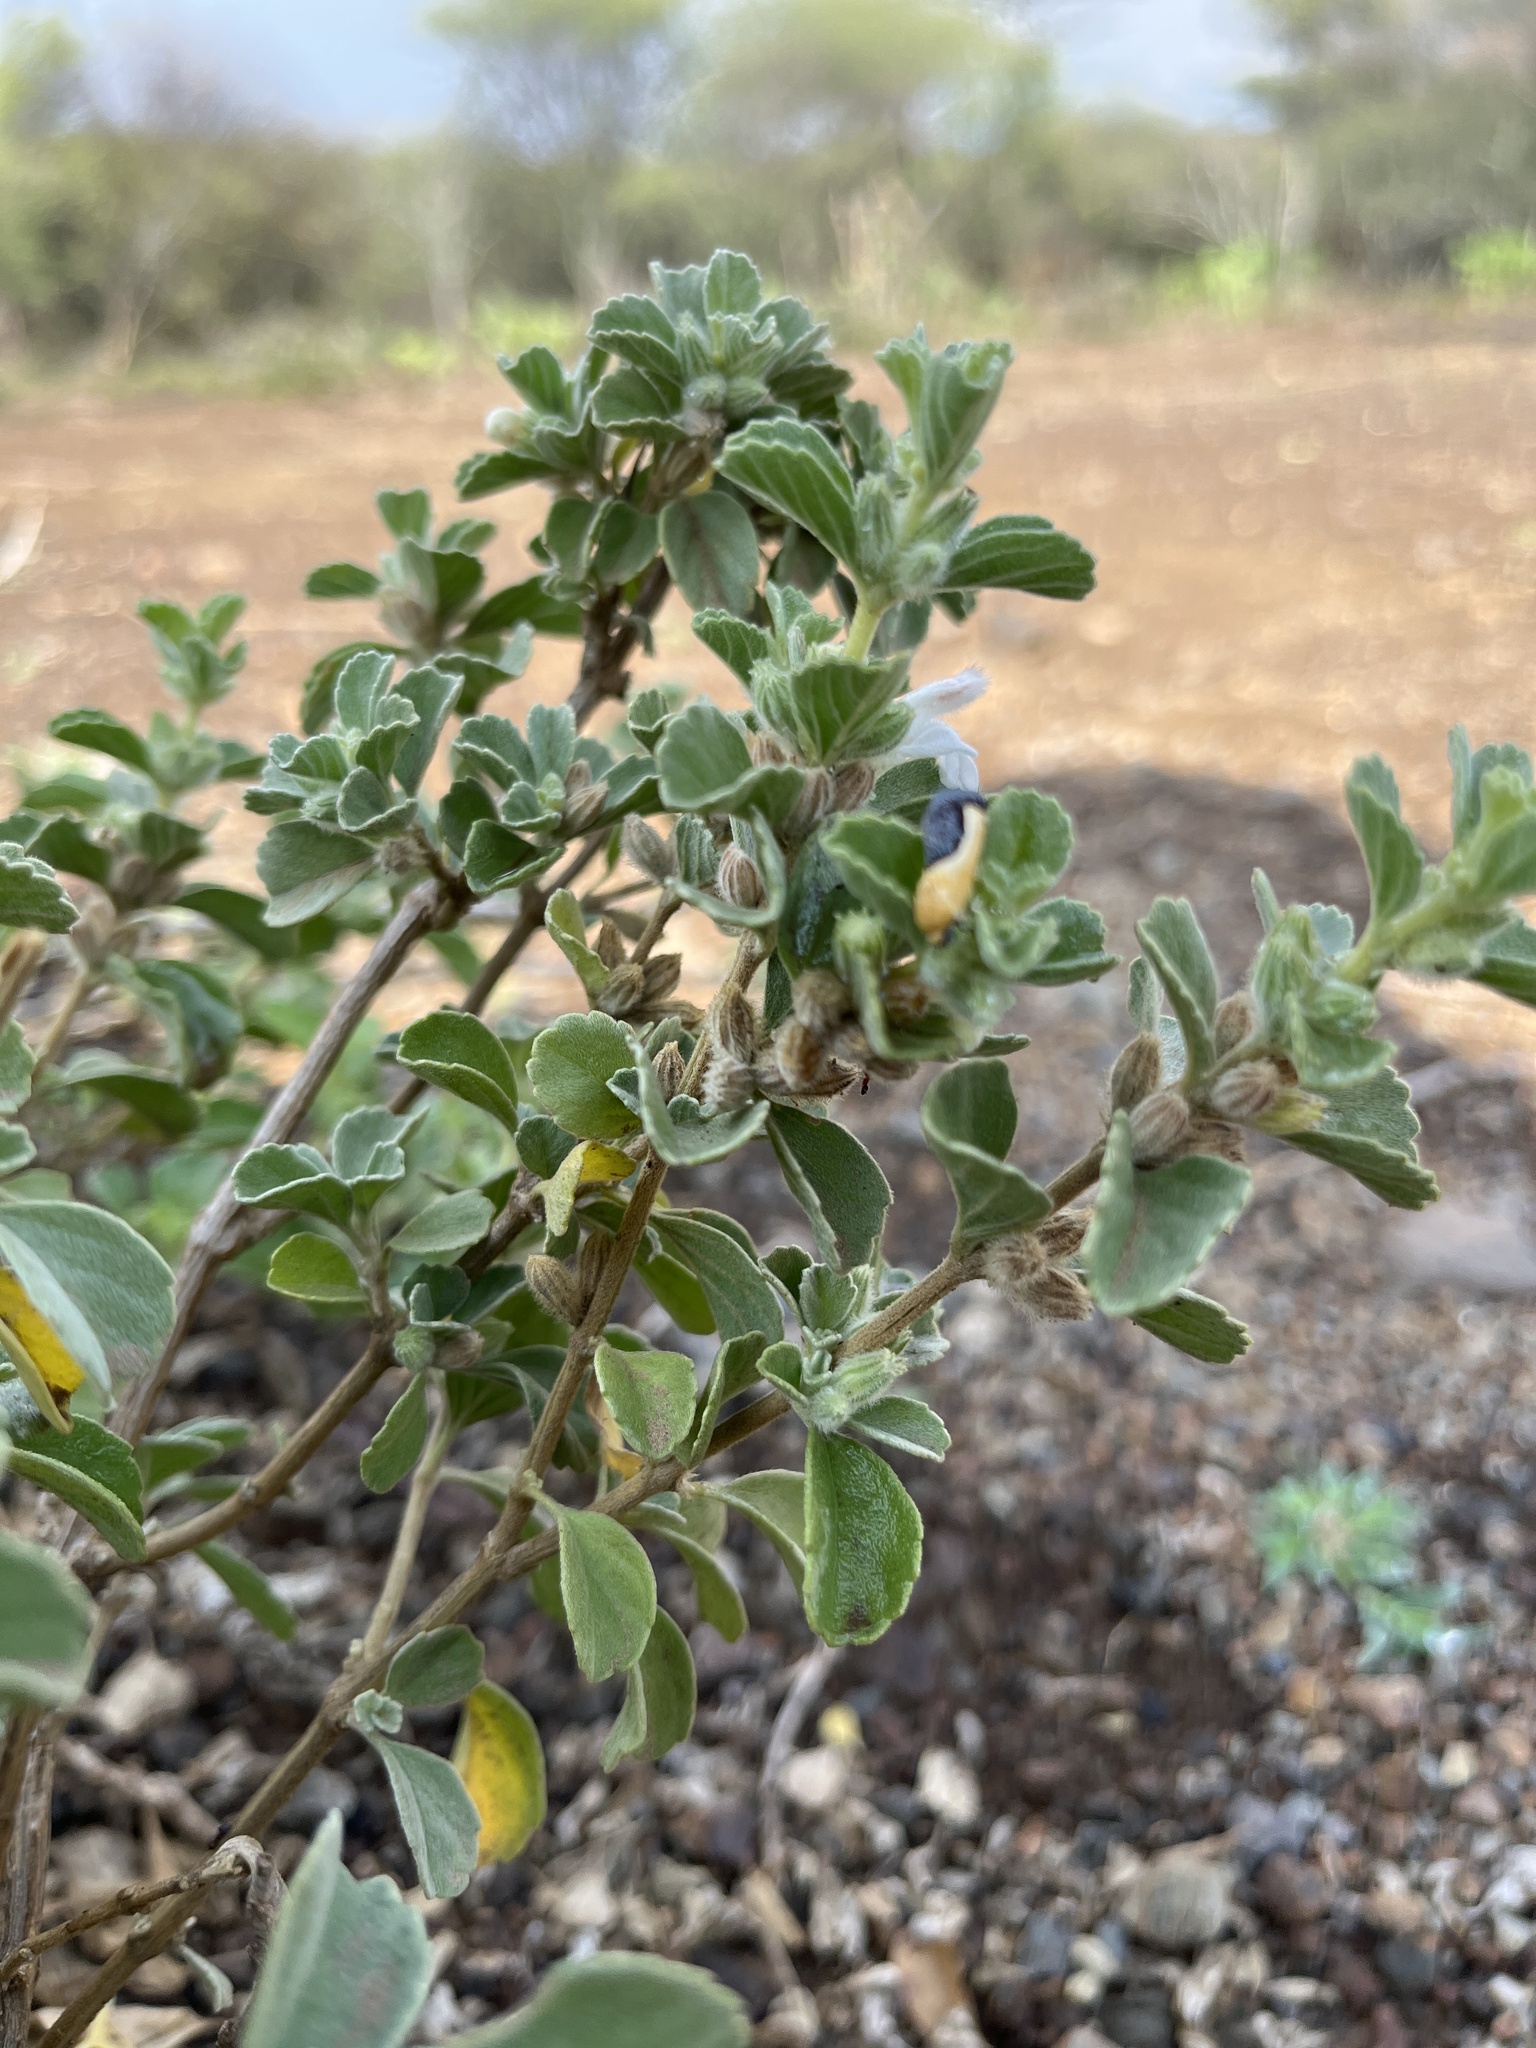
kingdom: Animalia
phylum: Arthropoda
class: Insecta
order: Lepidoptera
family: Noctuidae
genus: Acontia
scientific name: Acontia dichroa
